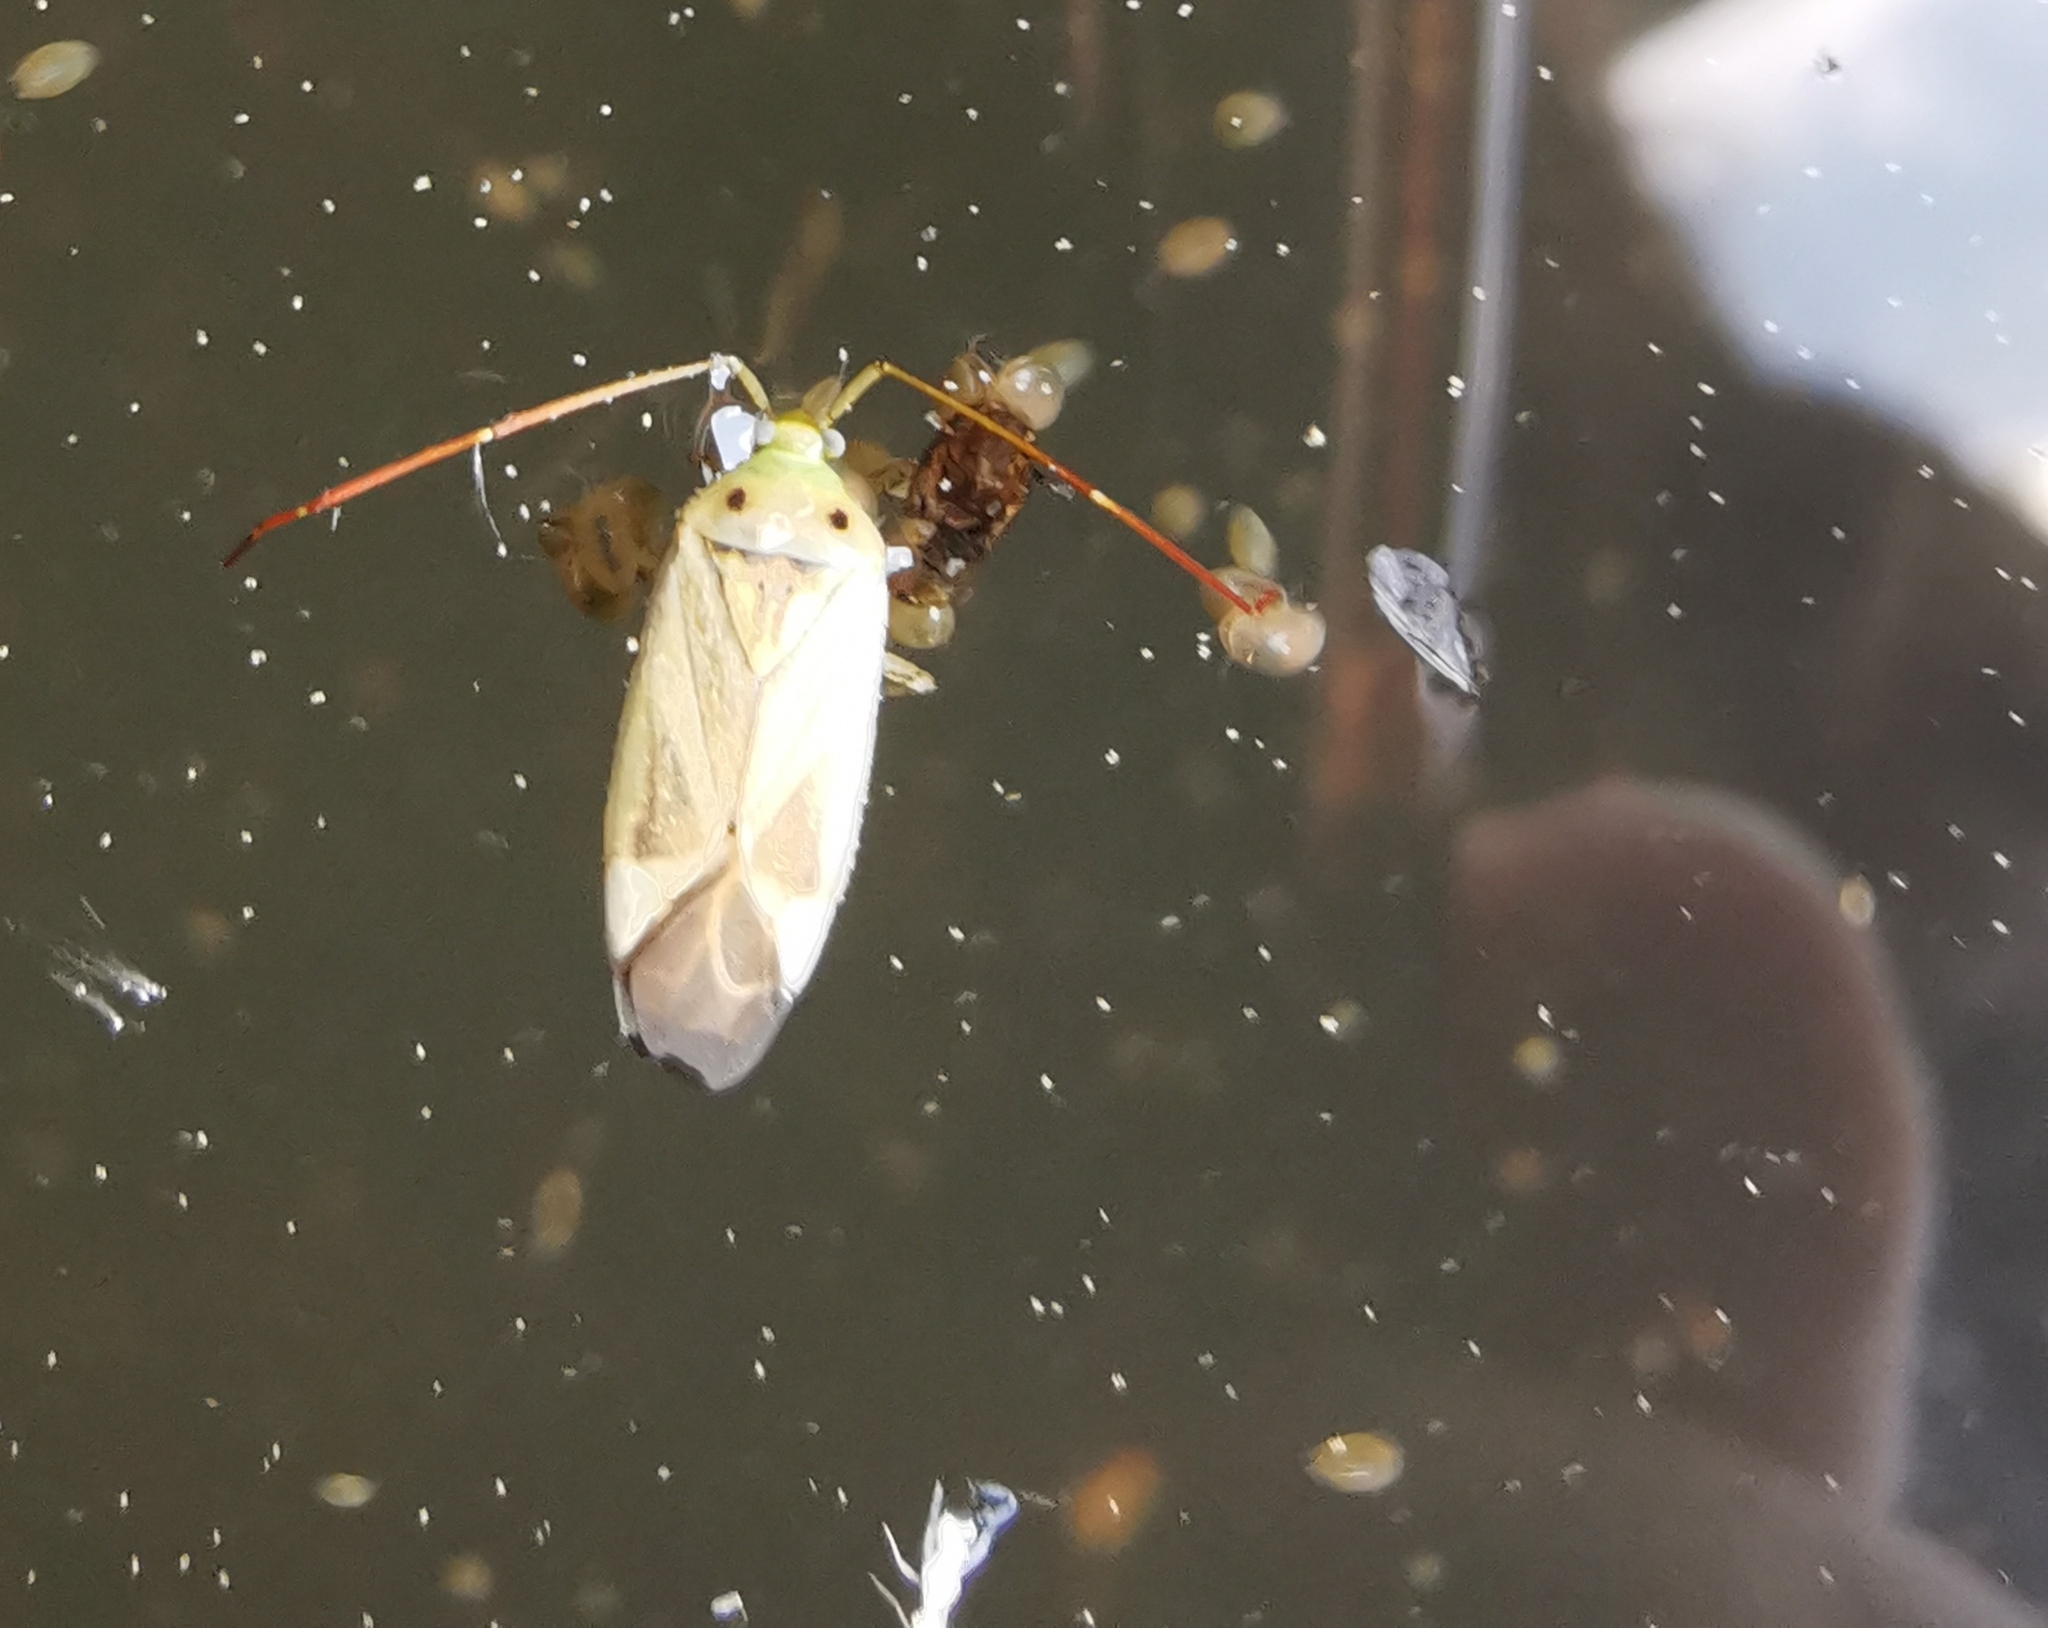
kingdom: Animalia
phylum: Arthropoda
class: Insecta
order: Hemiptera
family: Miridae
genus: Adelphocoris
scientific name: Adelphocoris lineolatus
